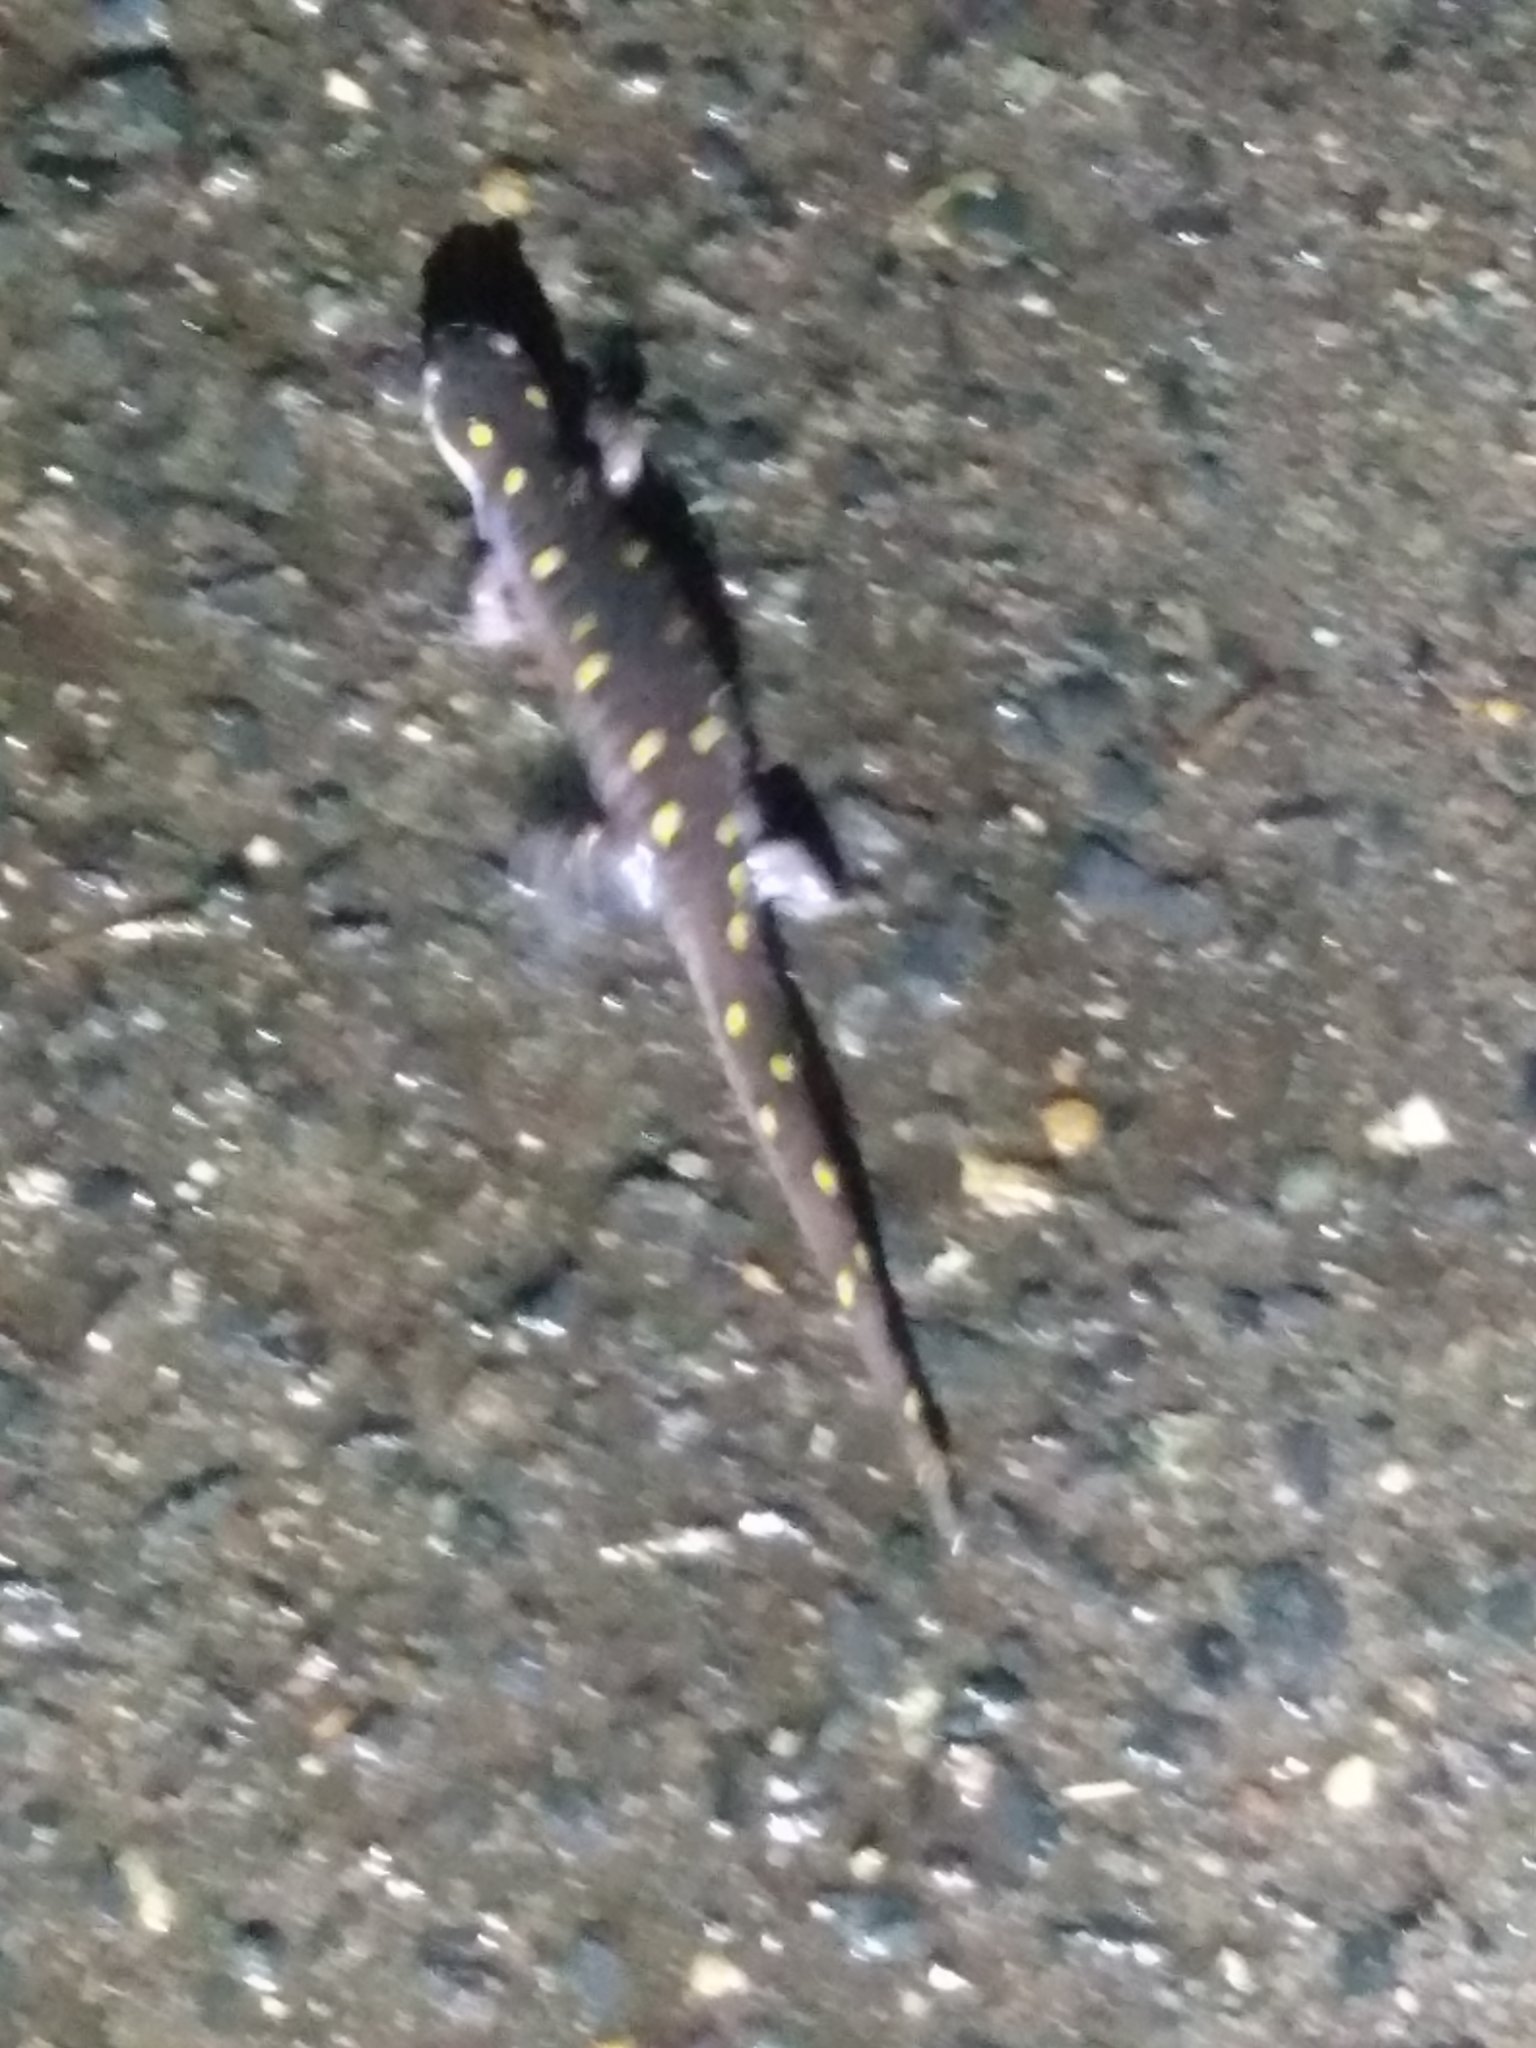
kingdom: Animalia
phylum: Chordata
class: Amphibia
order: Caudata
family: Ambystomatidae
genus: Ambystoma
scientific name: Ambystoma maculatum
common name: Spotted salamander
